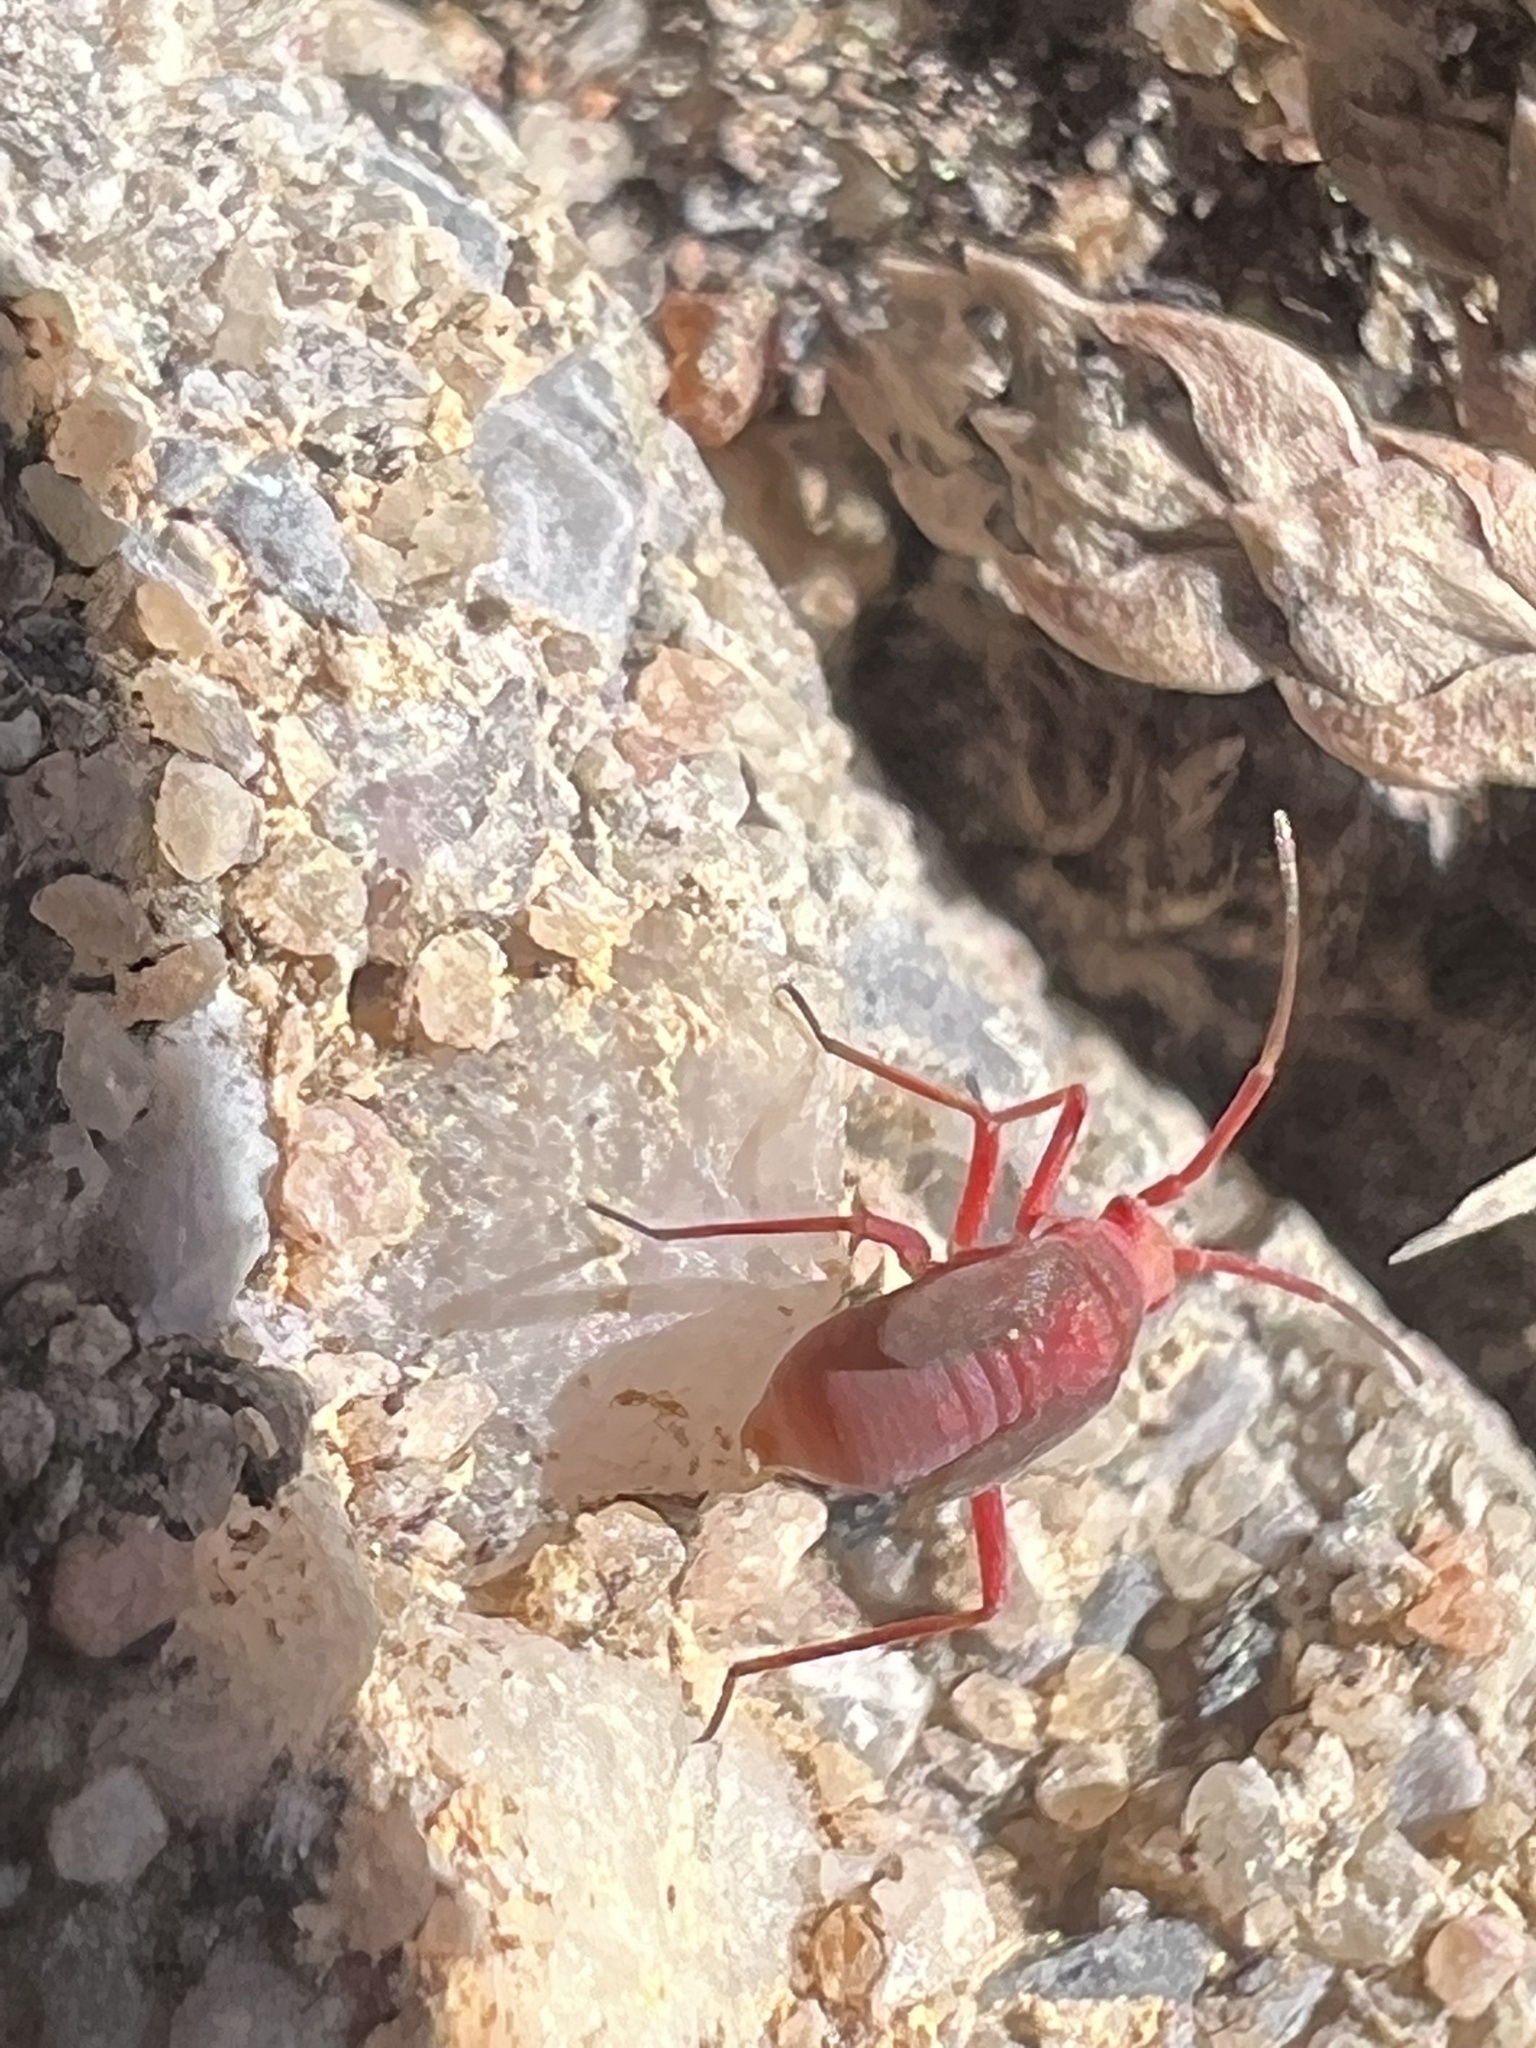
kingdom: Animalia
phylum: Arthropoda
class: Insecta
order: Hemiptera
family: Miridae
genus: Semium
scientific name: Semium hirtum
